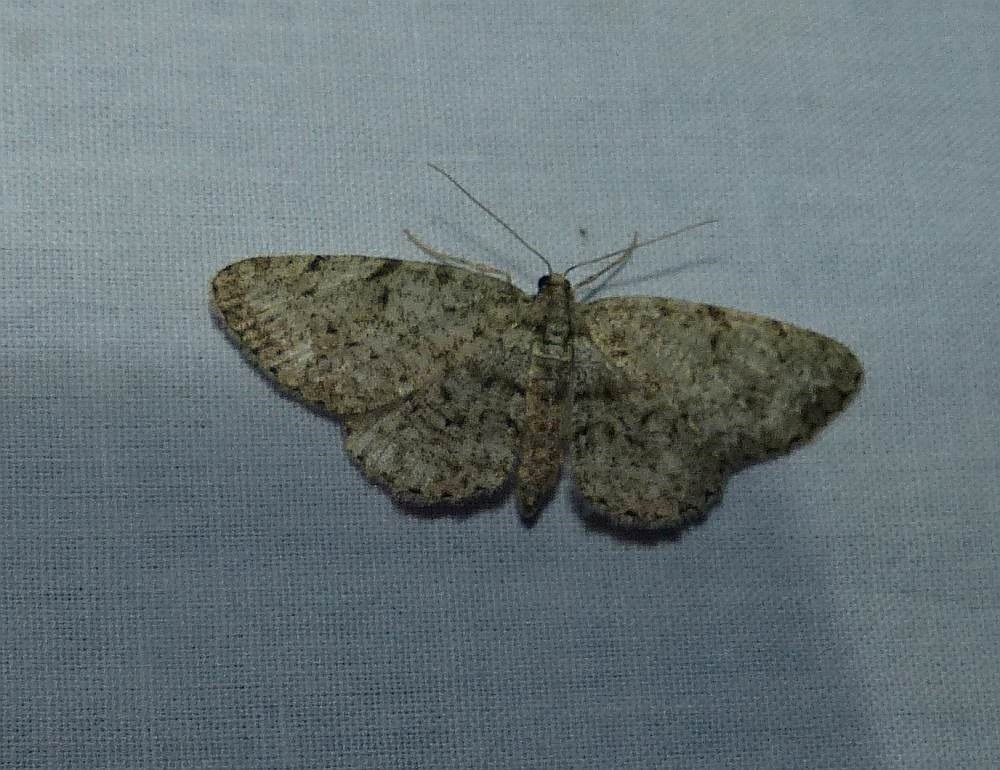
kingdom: Animalia
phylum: Arthropoda
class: Insecta
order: Lepidoptera
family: Geometridae
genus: Protoboarmia
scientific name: Protoboarmia porcelaria
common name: Porcelain gray
